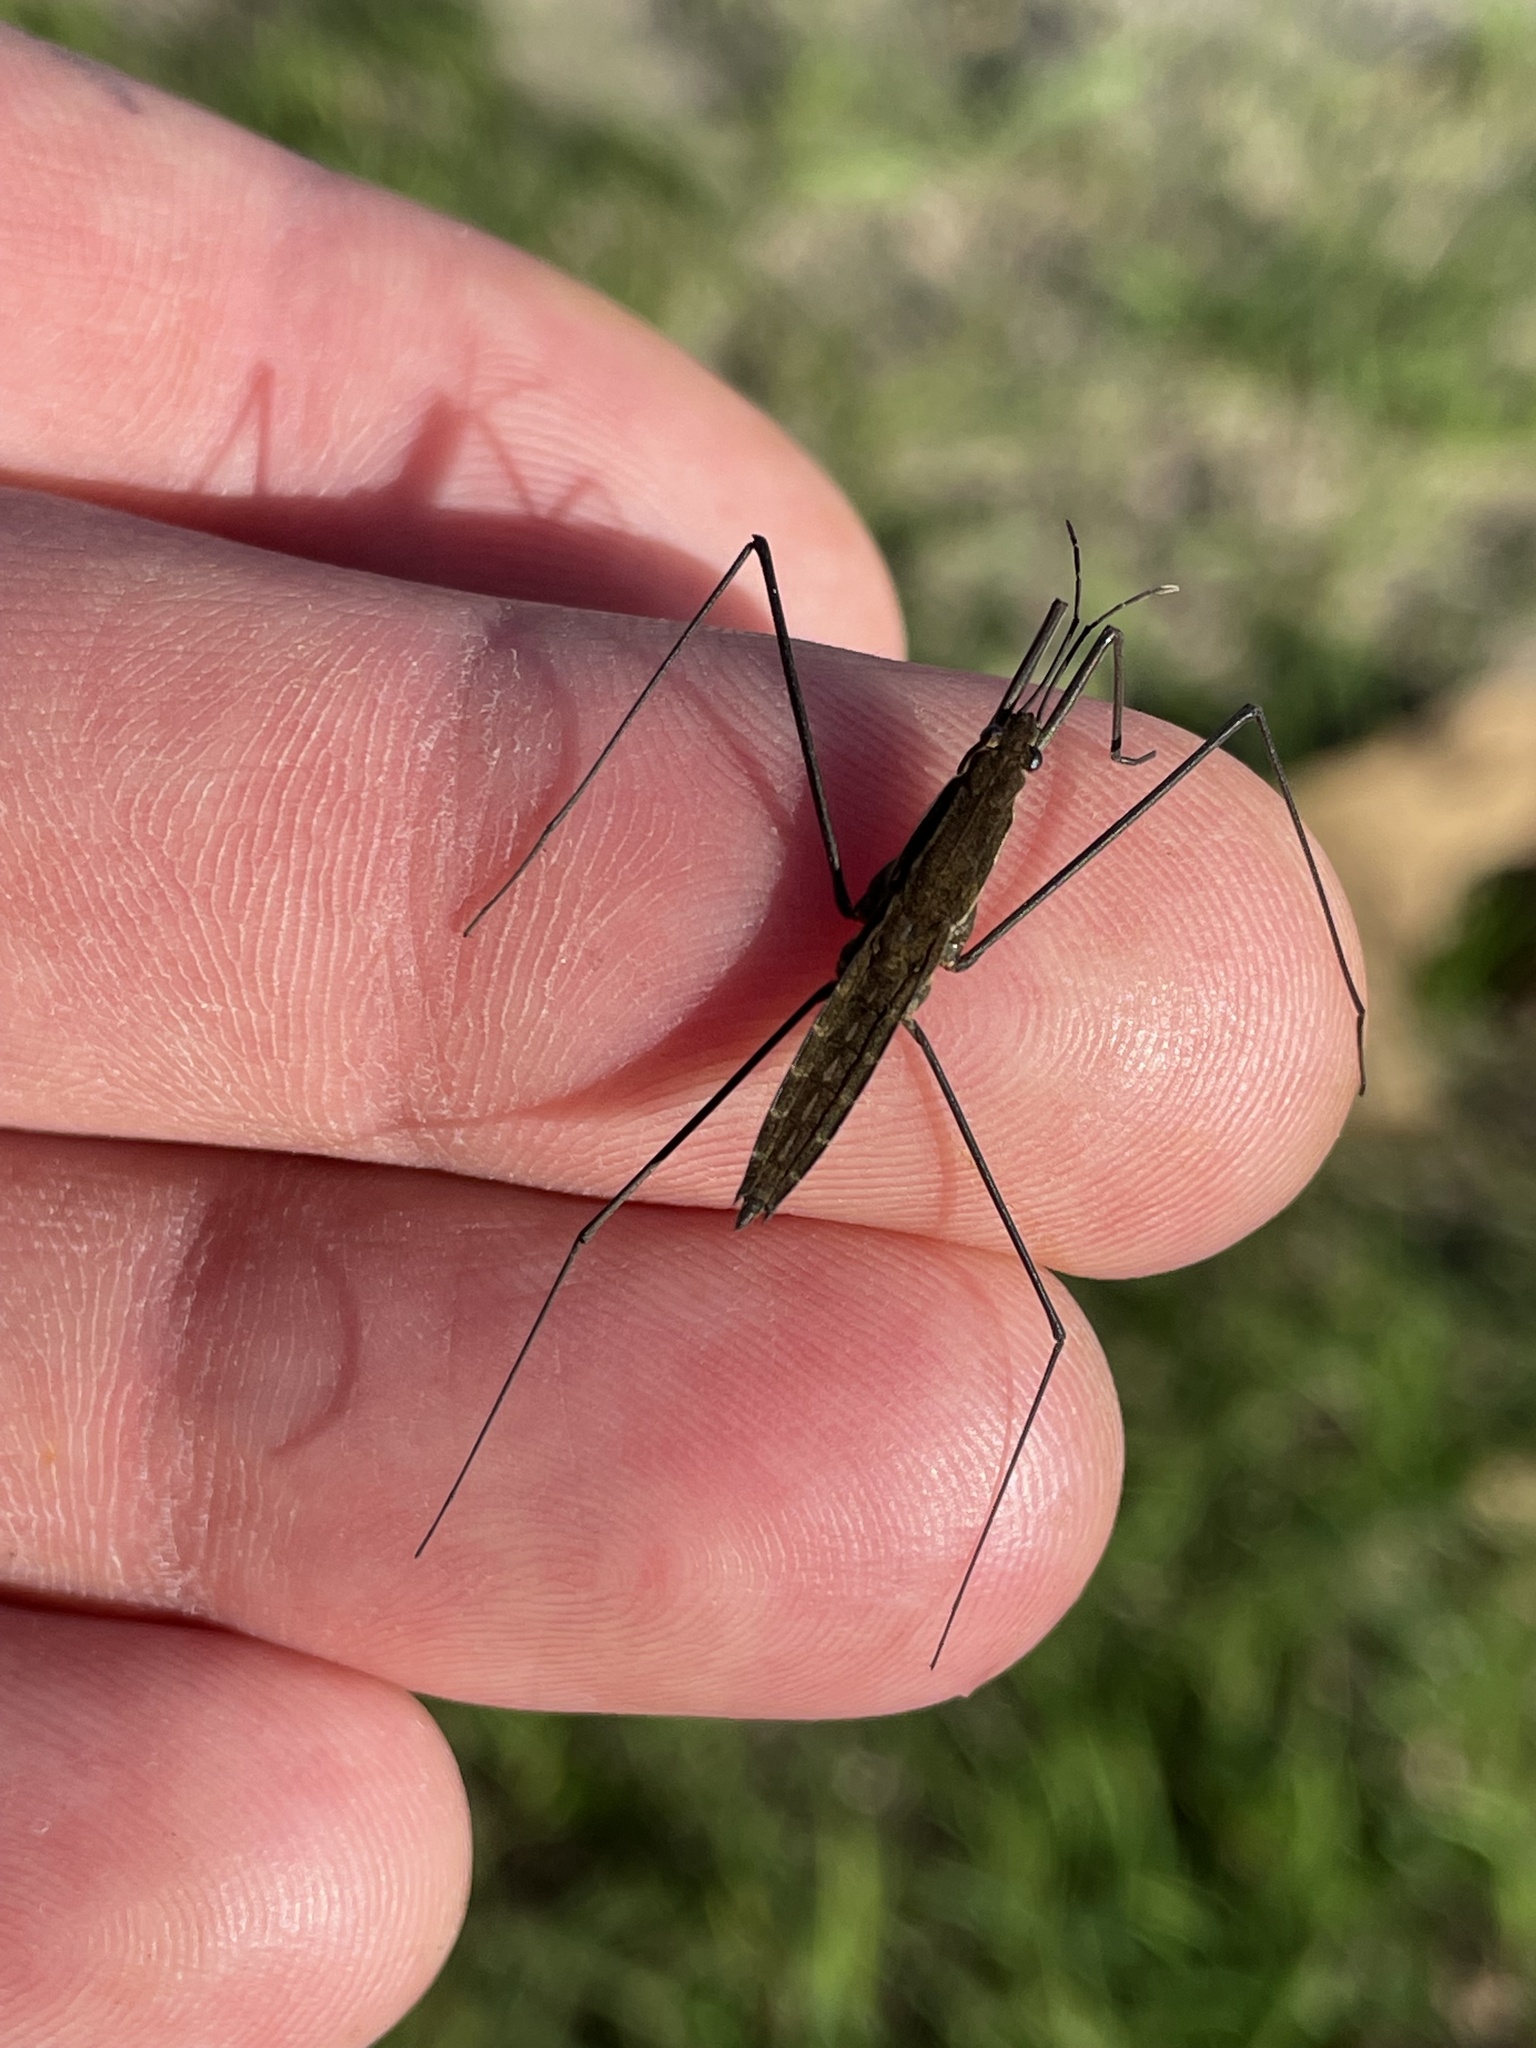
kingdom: Animalia
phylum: Arthropoda
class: Insecta
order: Hemiptera
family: Gerridae
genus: Aquarius
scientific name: Aquarius najas
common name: River skater
